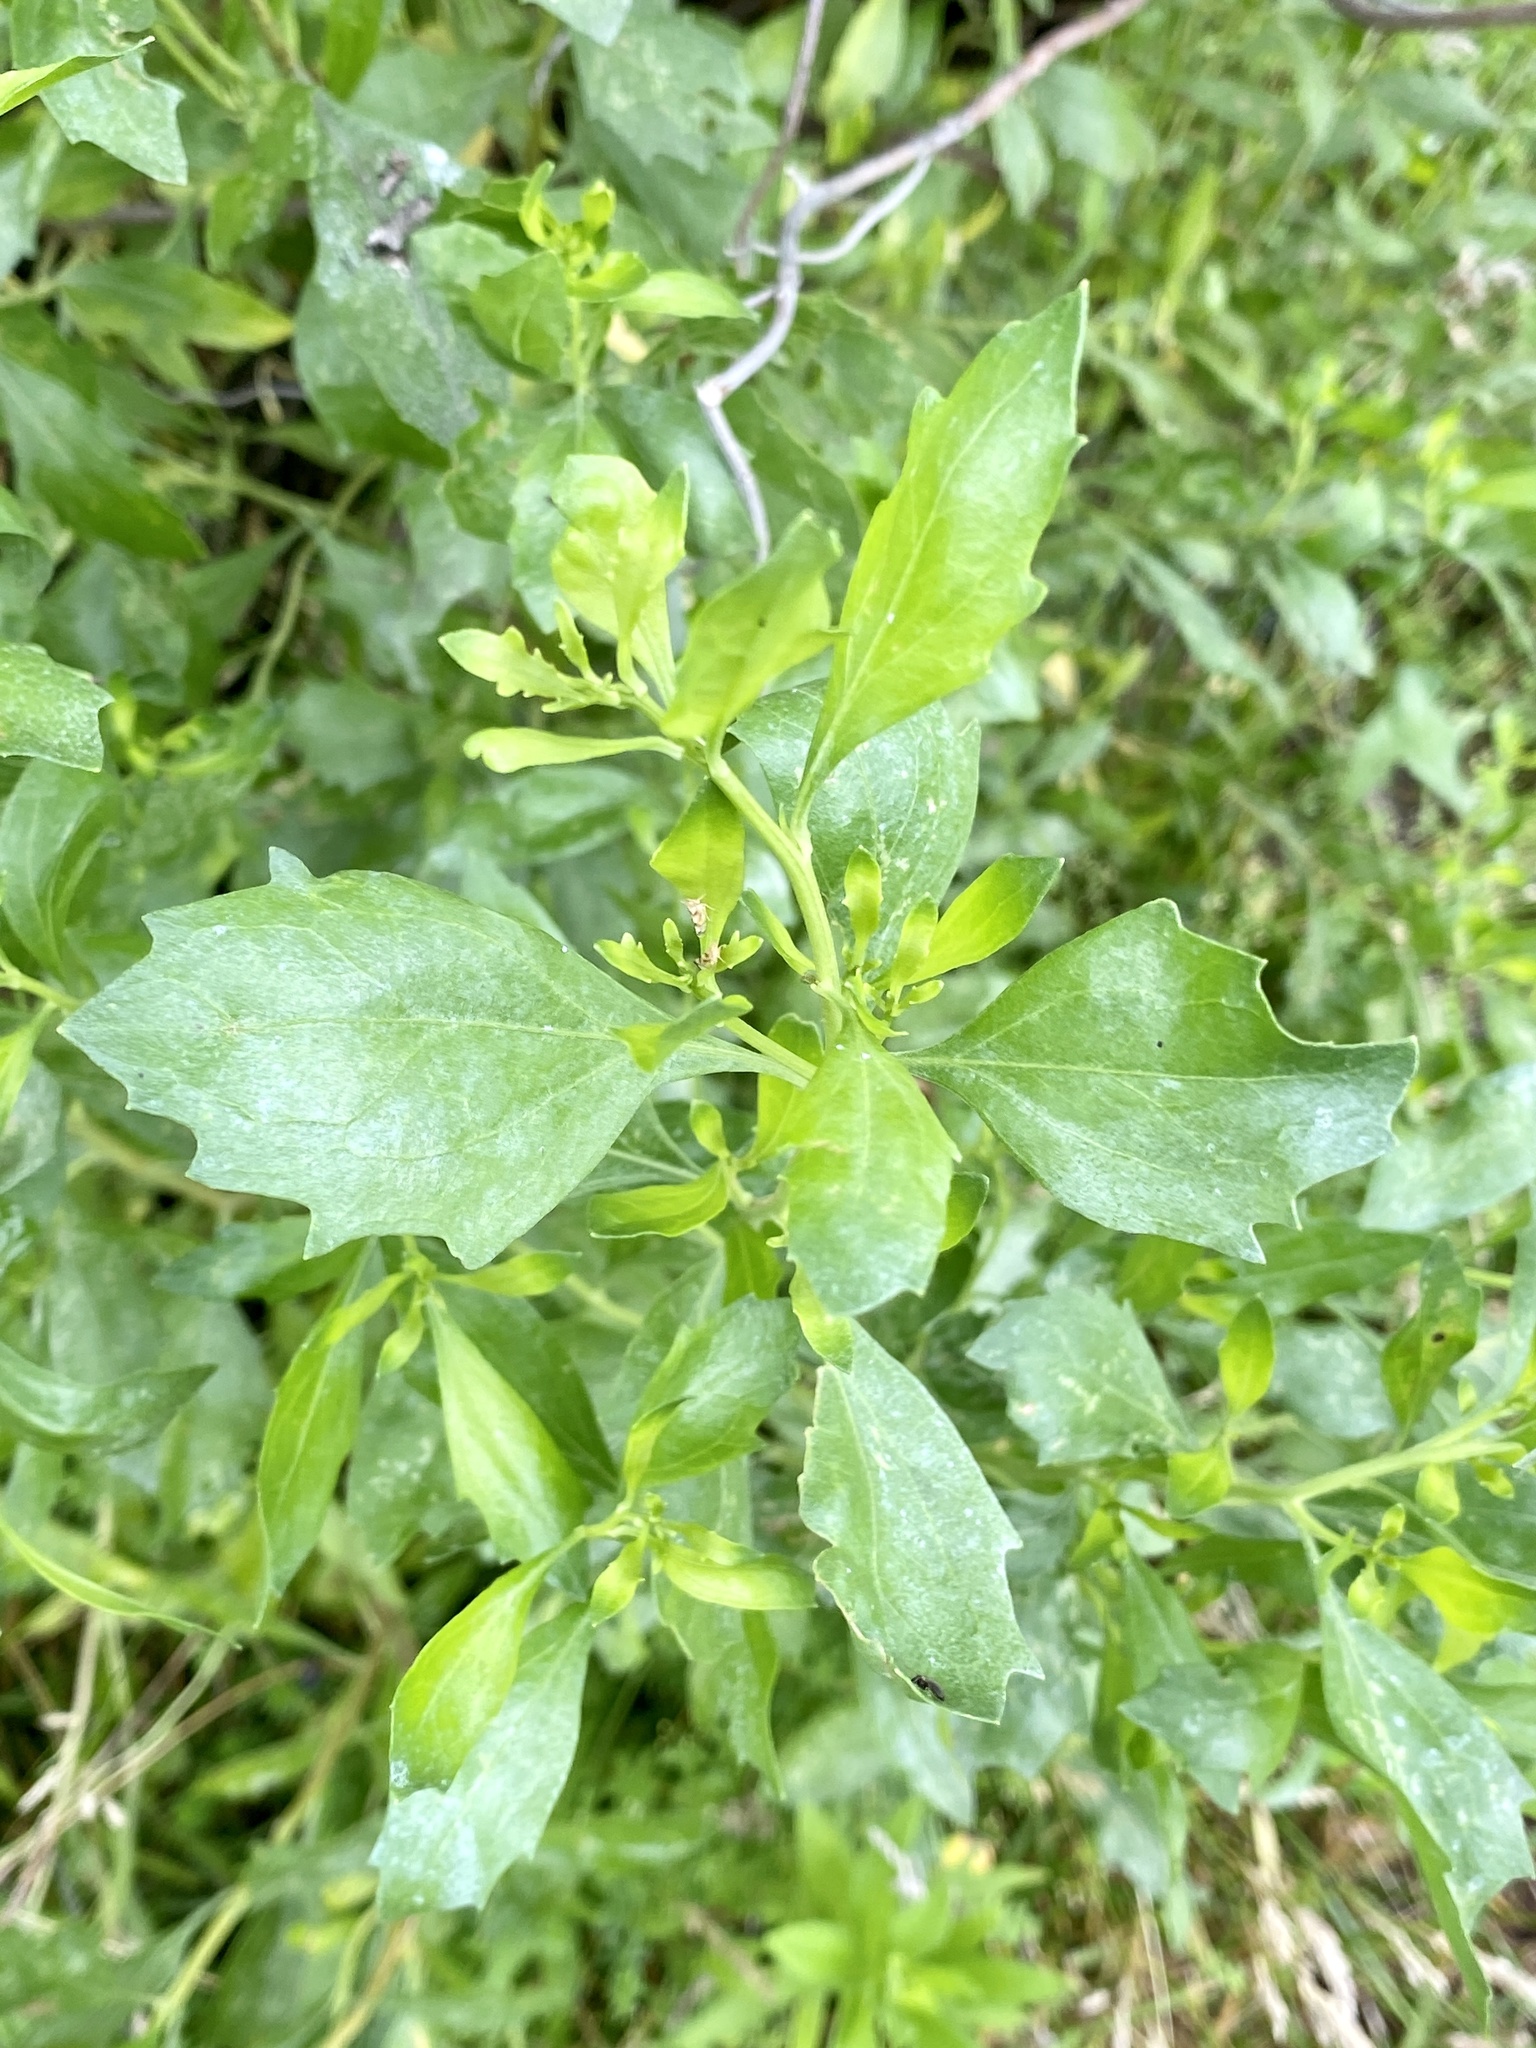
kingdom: Plantae
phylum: Tracheophyta
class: Magnoliopsida
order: Asterales
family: Asteraceae
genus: Baccharis
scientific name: Baccharis halimifolia
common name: Eastern baccharis
